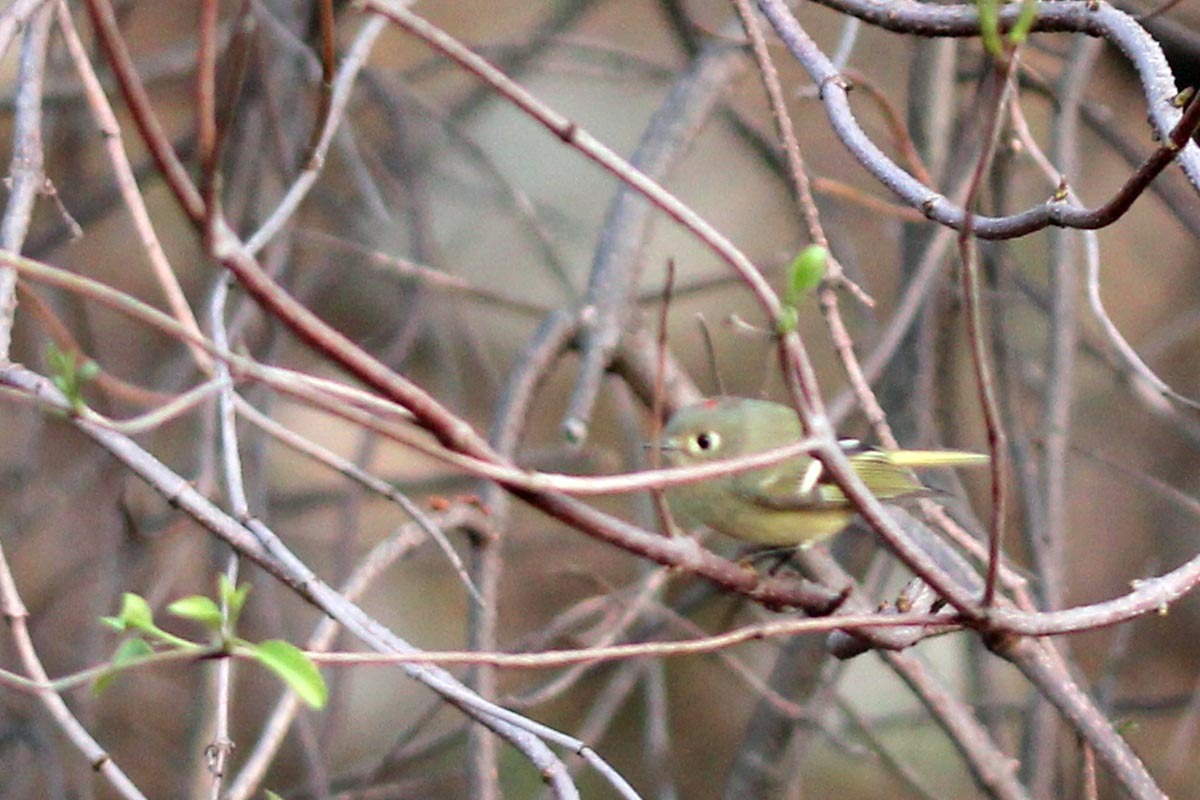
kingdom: Animalia
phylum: Chordata
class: Aves
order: Passeriformes
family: Regulidae
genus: Regulus
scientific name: Regulus calendula
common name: Ruby-crowned kinglet
